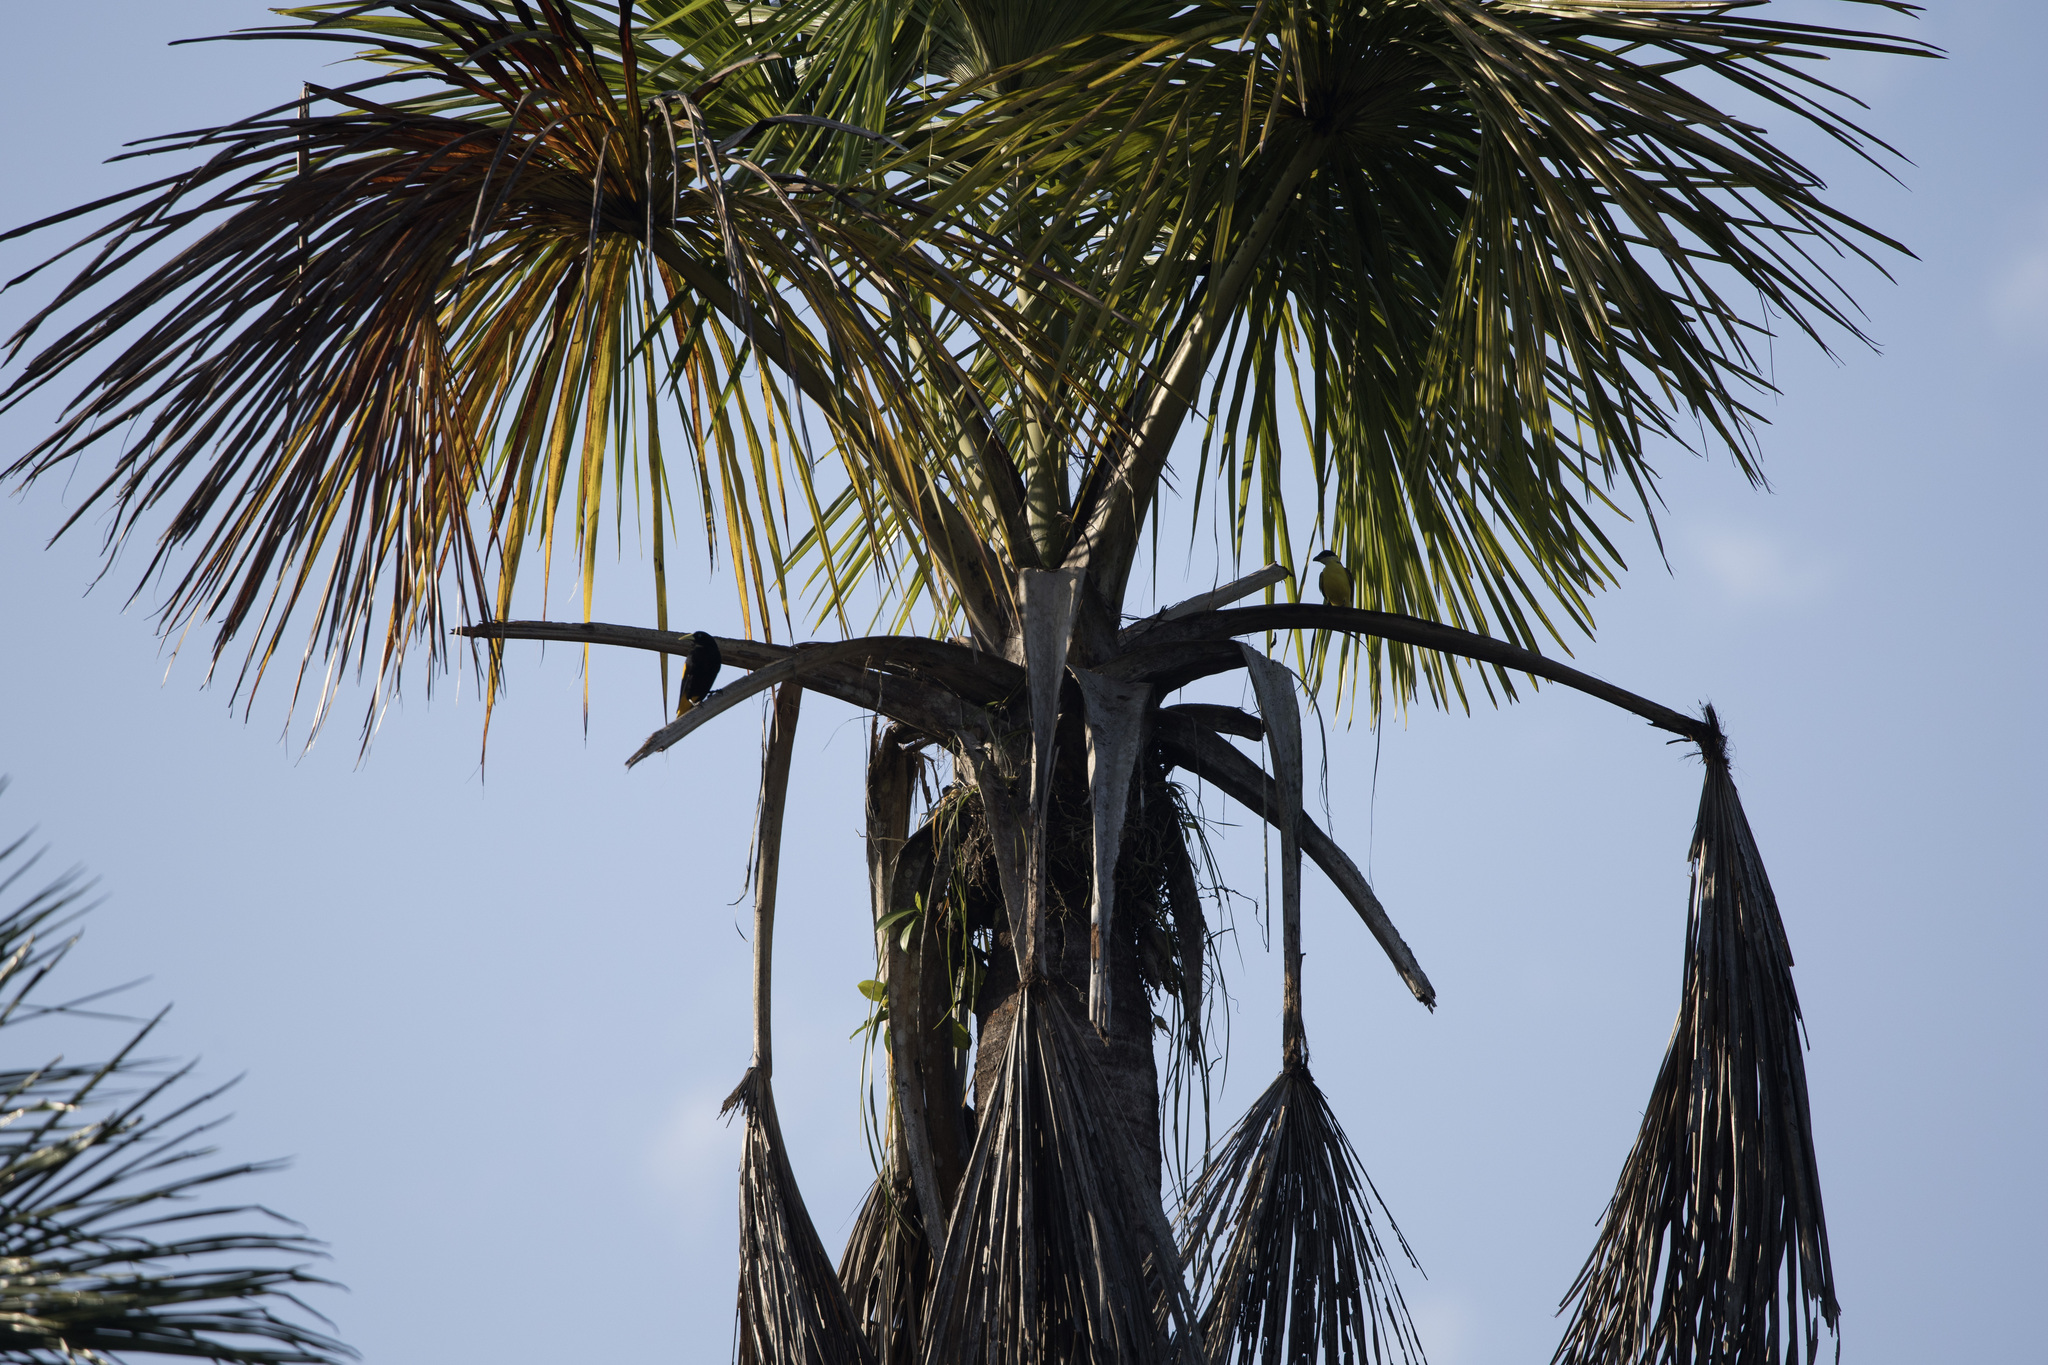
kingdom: Animalia
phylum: Chordata
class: Aves
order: Passeriformes
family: Tyrannidae
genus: Megarynchus
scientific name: Megarynchus pitangua
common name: Boat-billed flycatcher
